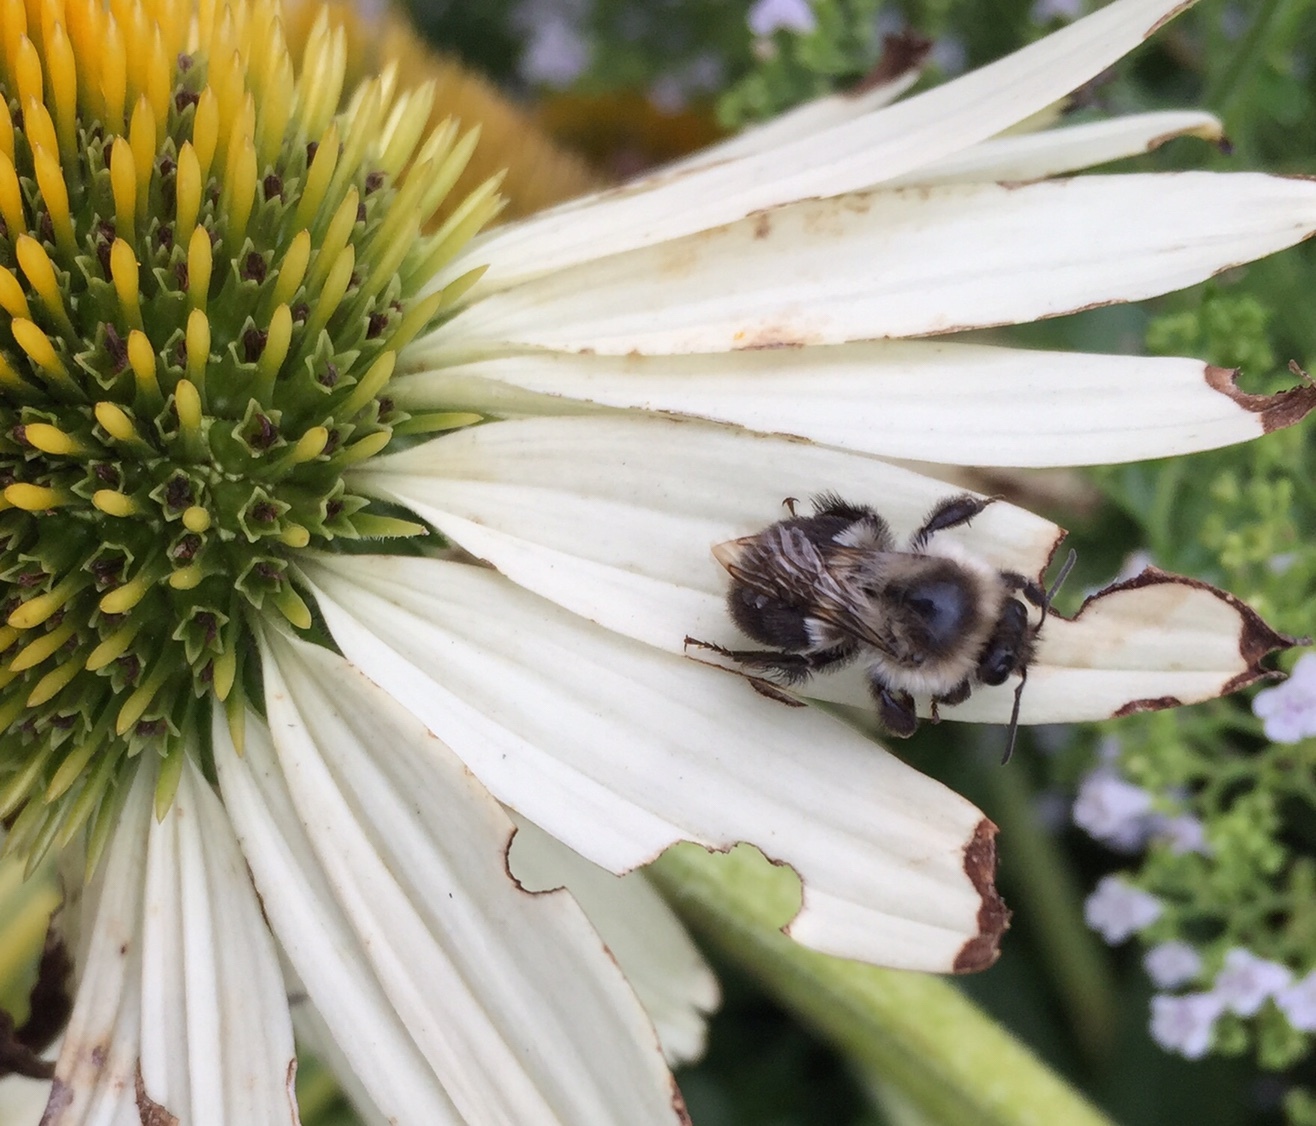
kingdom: Animalia
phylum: Arthropoda
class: Insecta
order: Hymenoptera
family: Apidae
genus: Bombus
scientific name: Bombus impatiens
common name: Common eastern bumble bee
